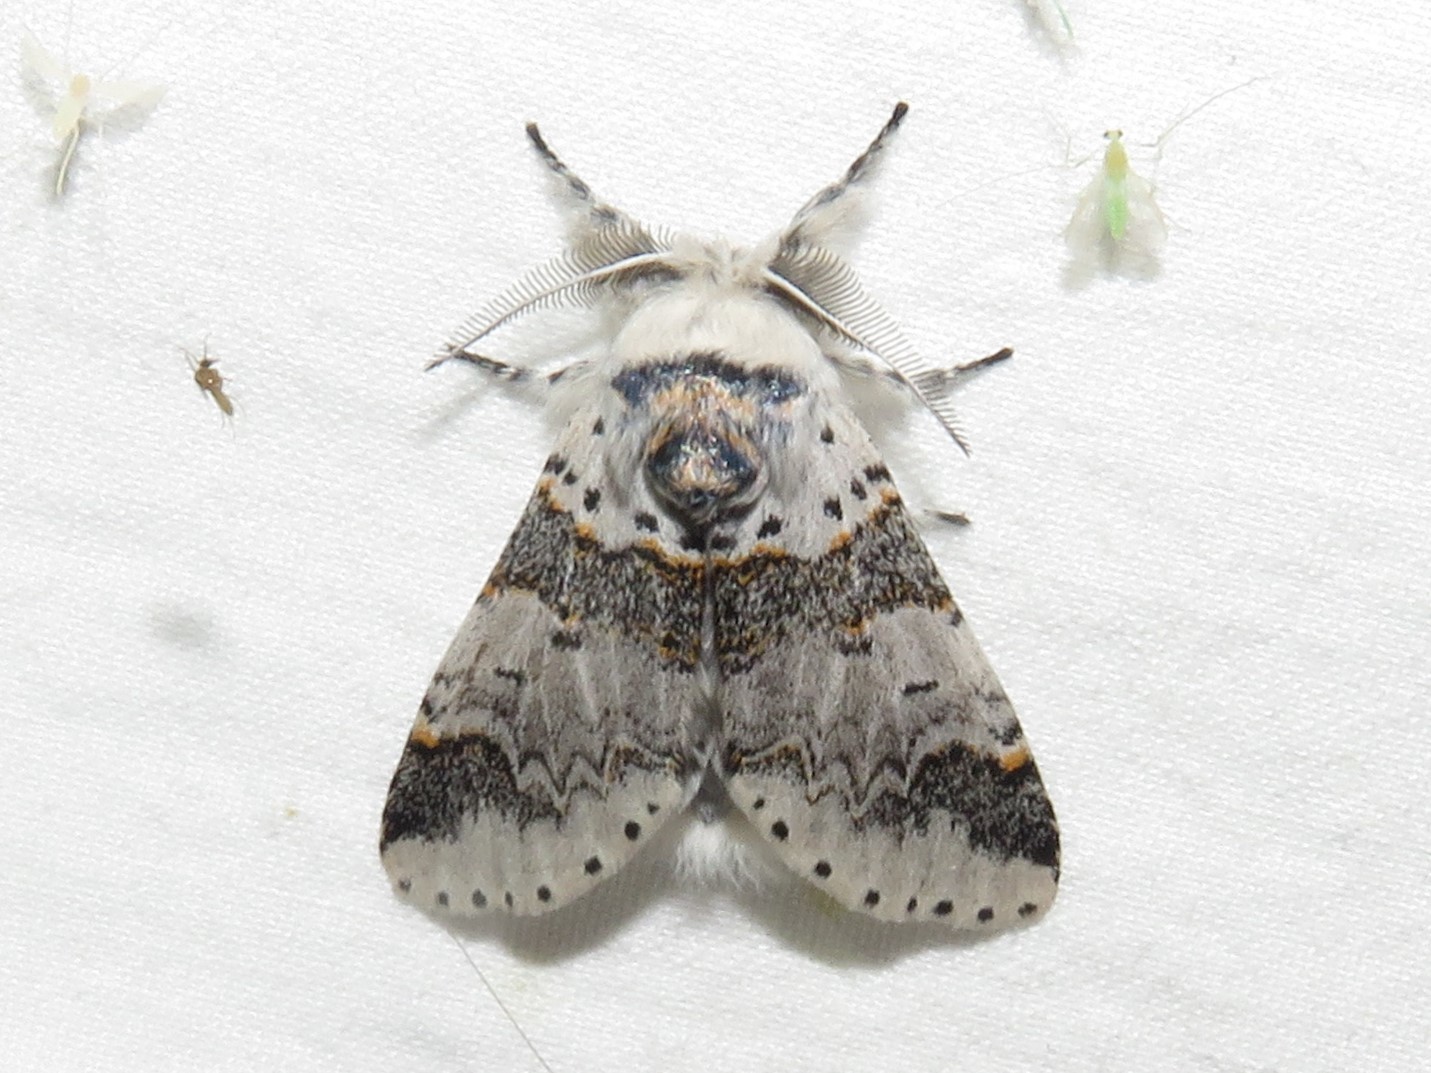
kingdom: Animalia
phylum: Arthropoda
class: Insecta
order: Lepidoptera
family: Notodontidae
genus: Furcula
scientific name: Furcula occidentalis
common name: Western furcula moth
